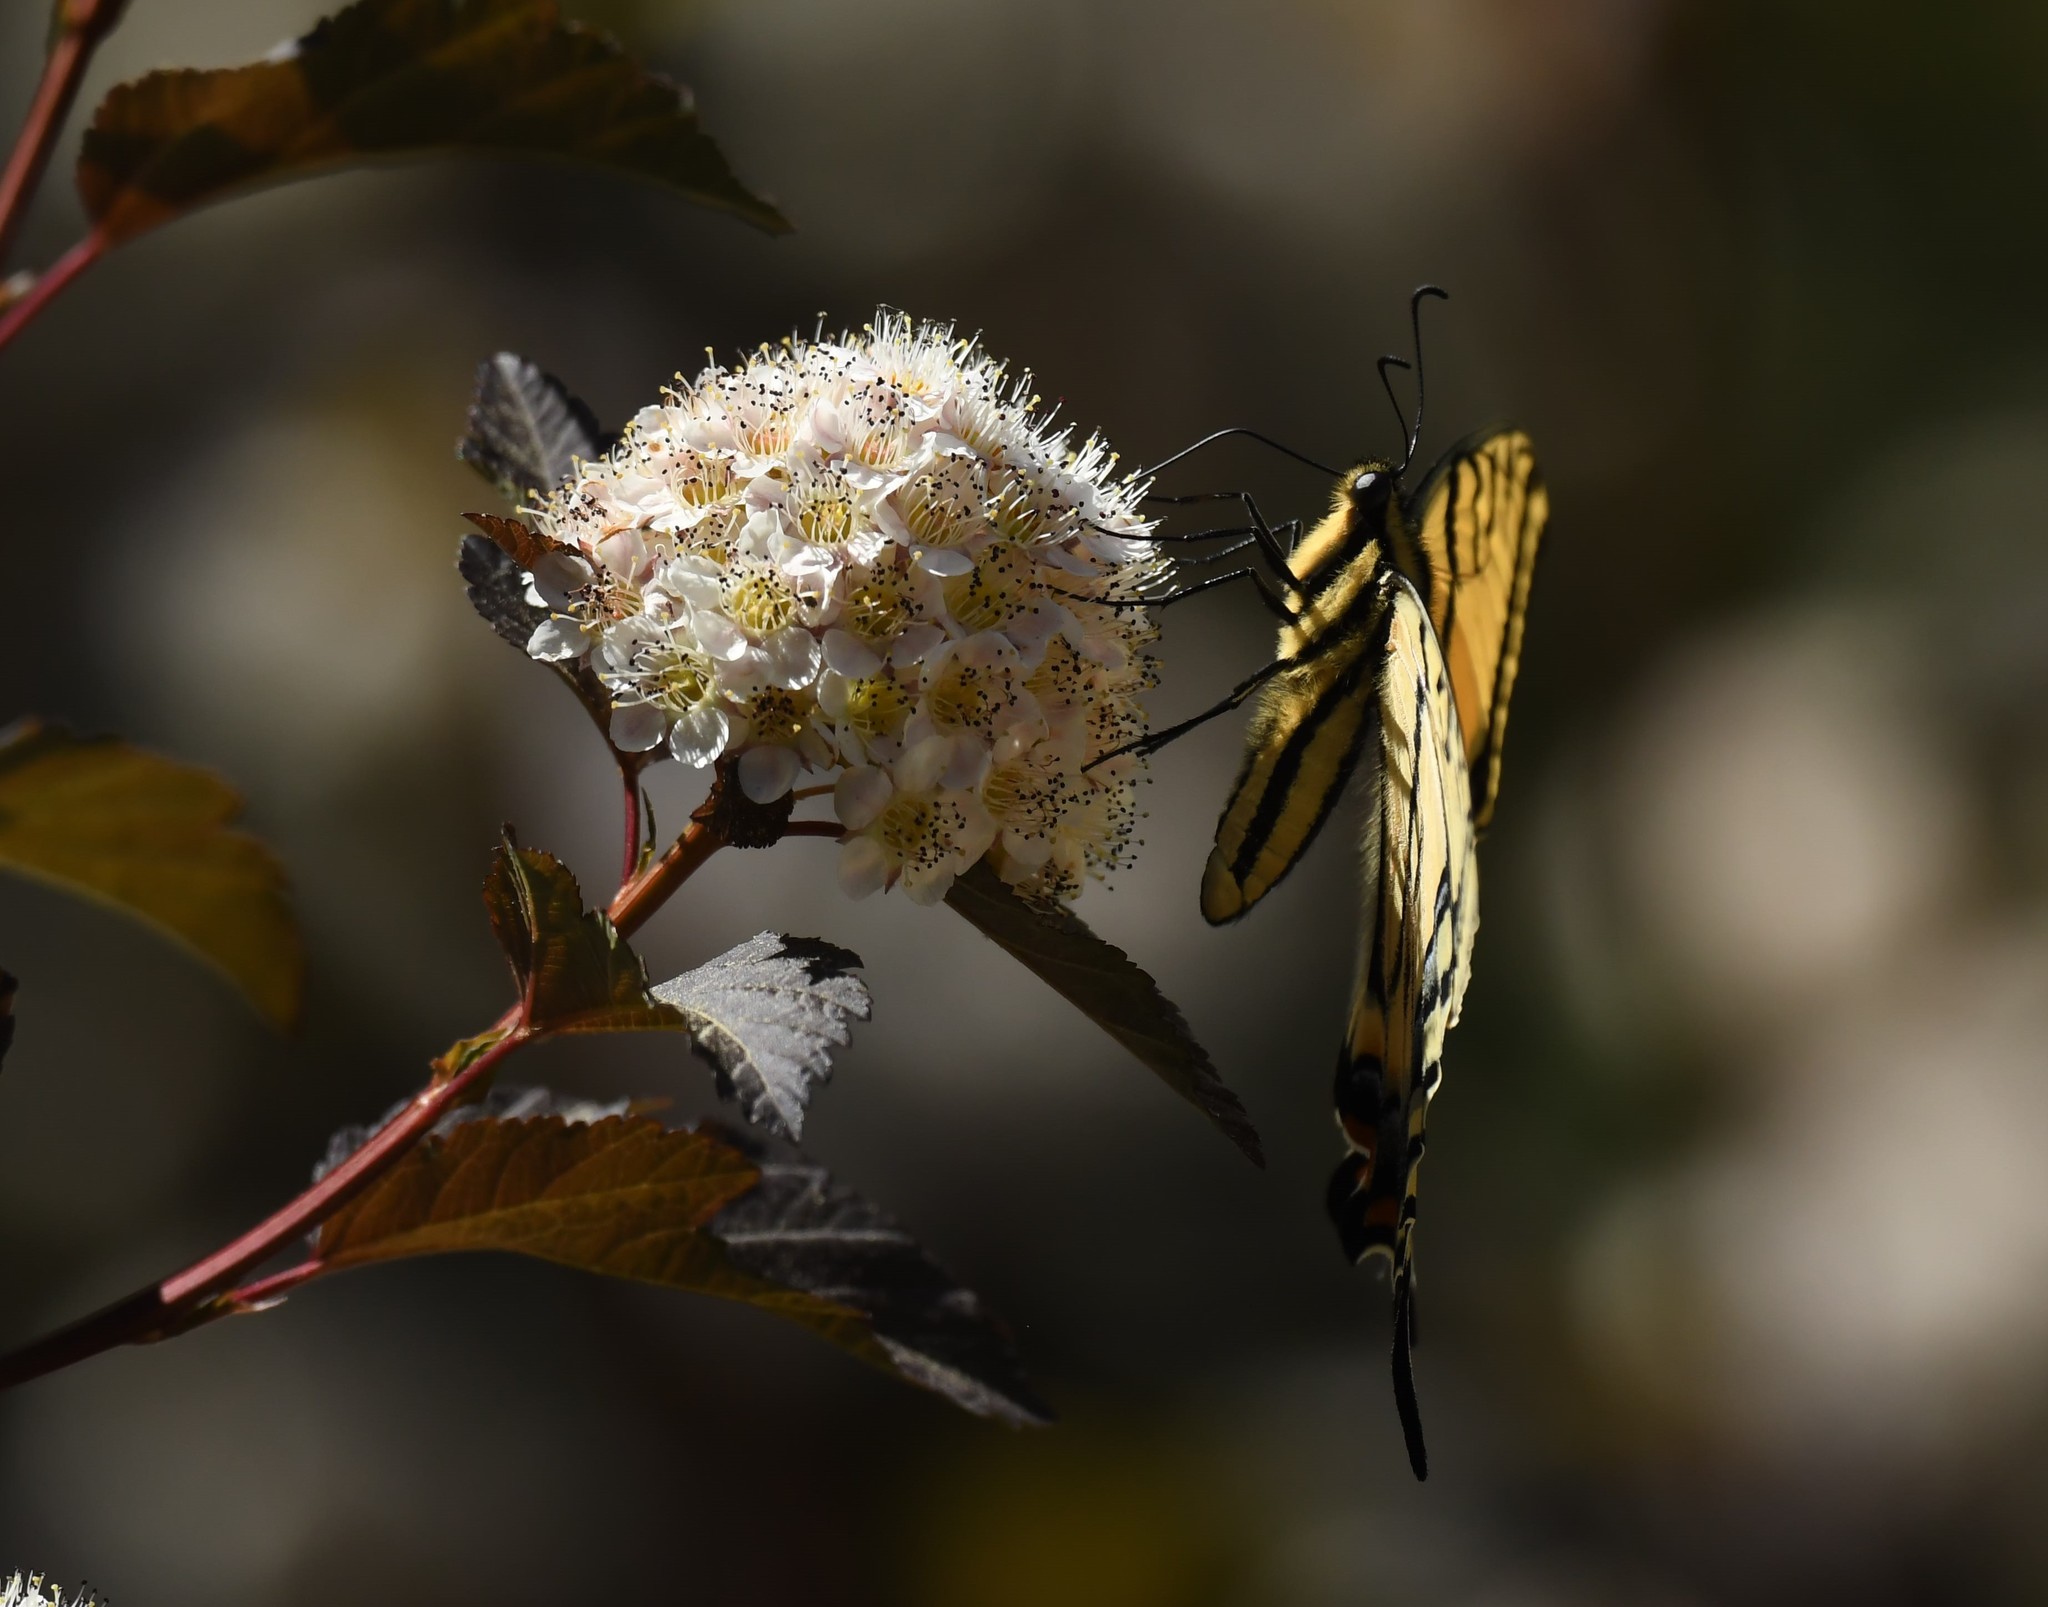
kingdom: Animalia
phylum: Arthropoda
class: Insecta
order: Lepidoptera
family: Papilionidae
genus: Papilio
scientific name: Papilio multicaudata
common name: Two-tailed tiger swallowtail
